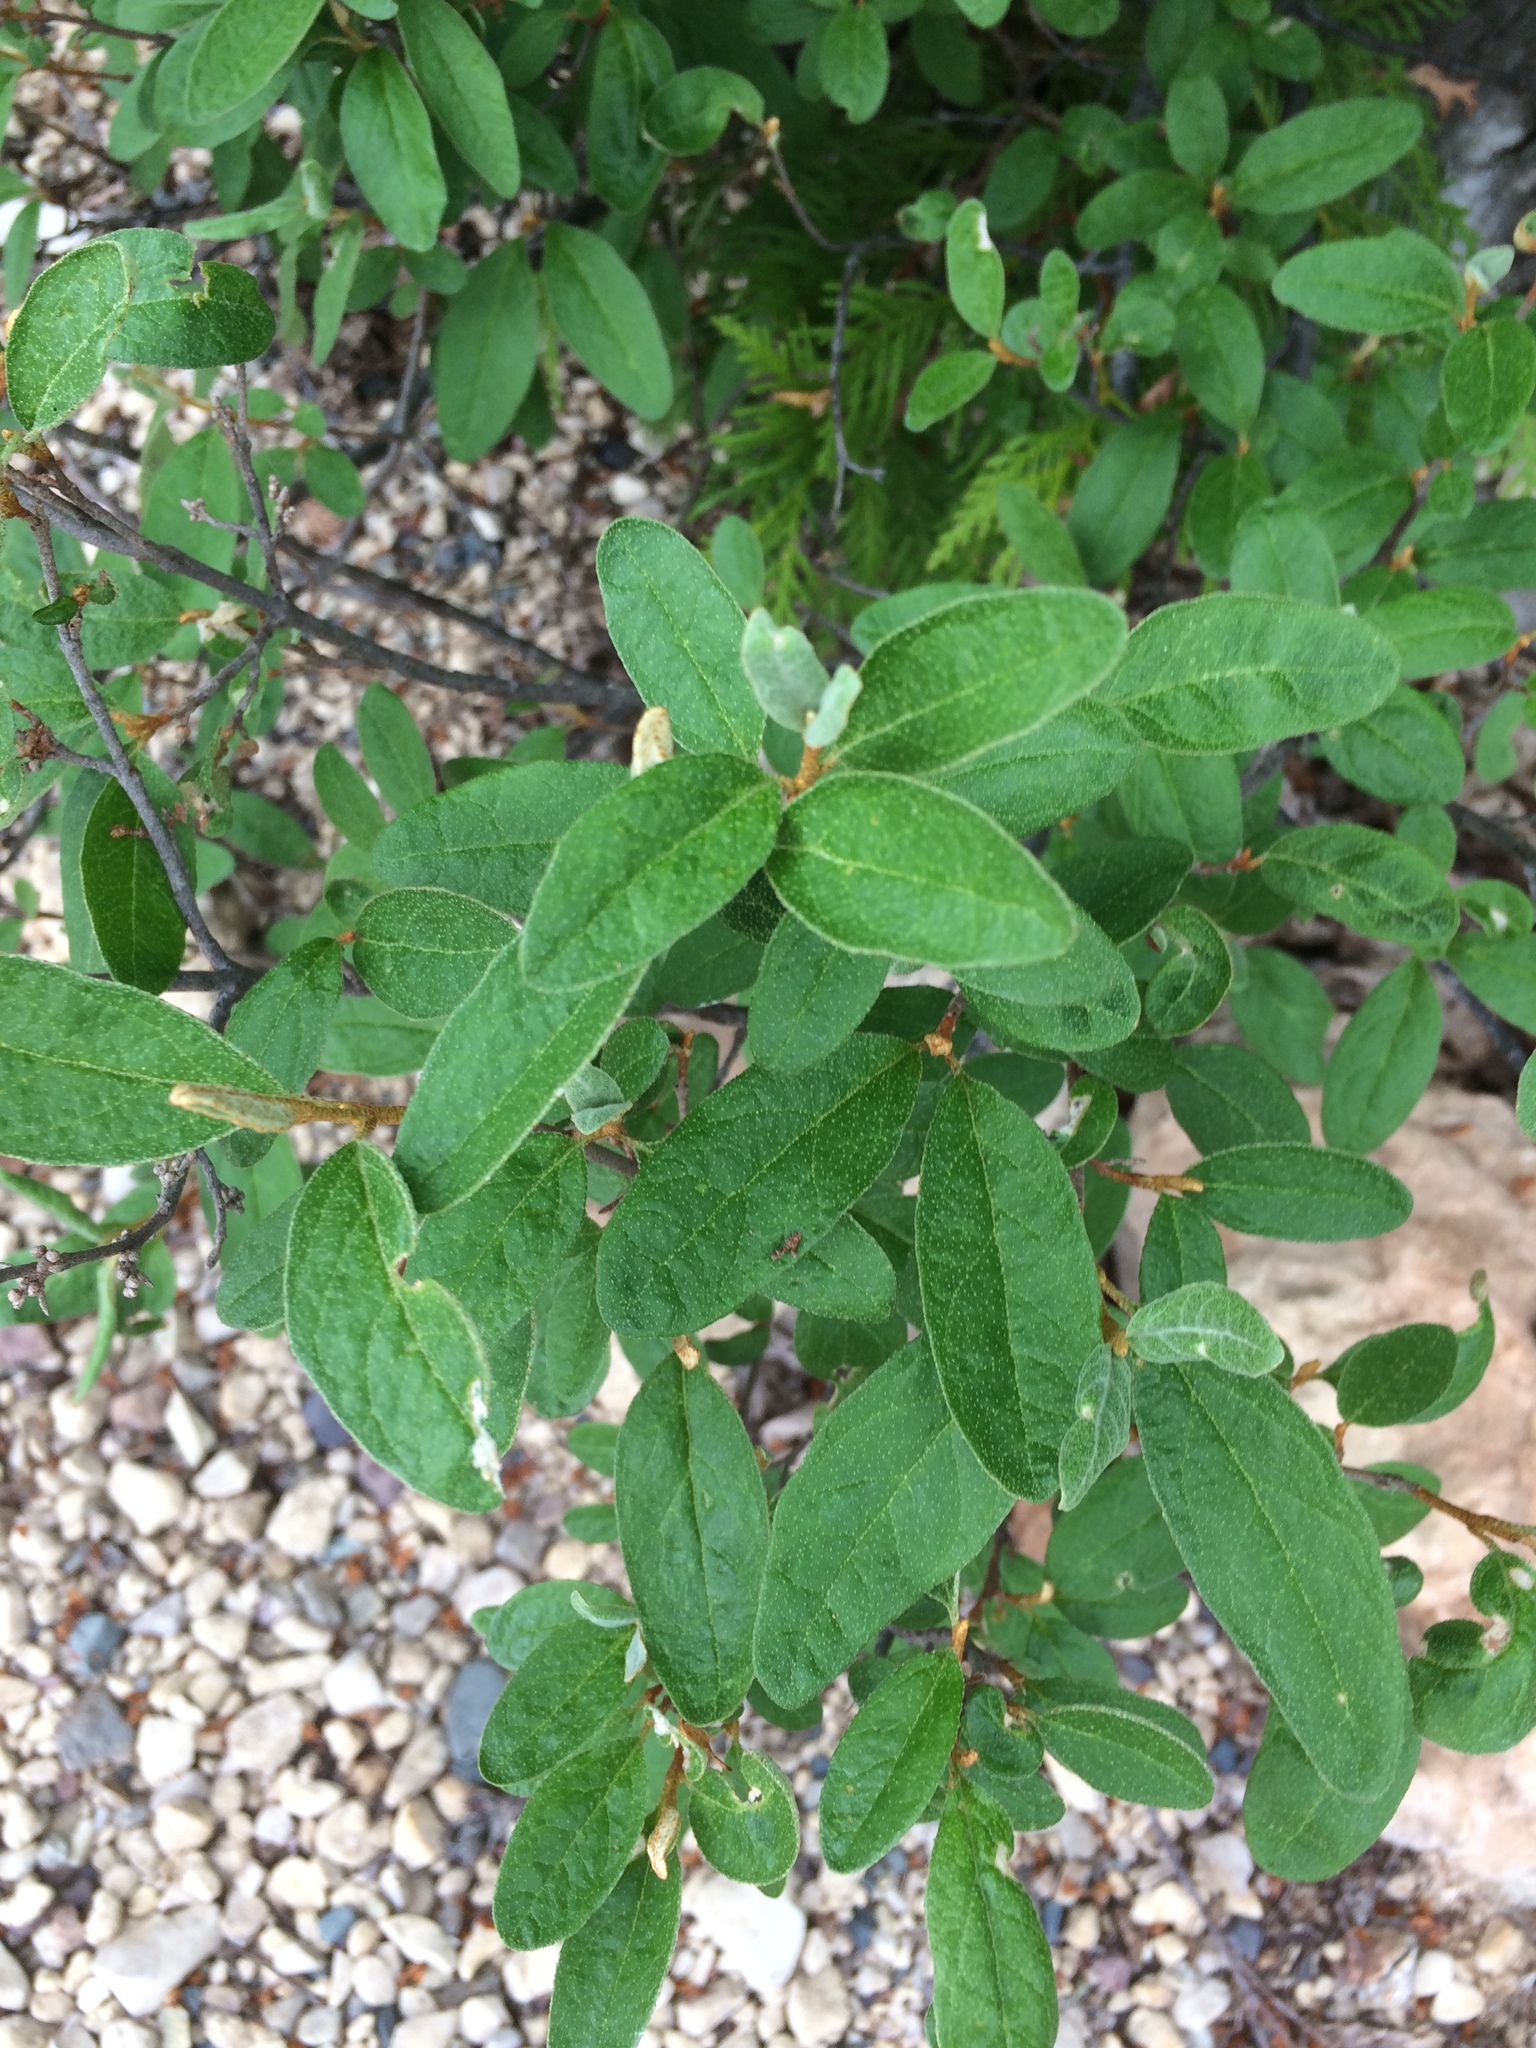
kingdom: Plantae
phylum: Tracheophyta
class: Magnoliopsida
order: Rosales
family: Elaeagnaceae
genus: Shepherdia
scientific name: Shepherdia canadensis
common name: Soapberry
